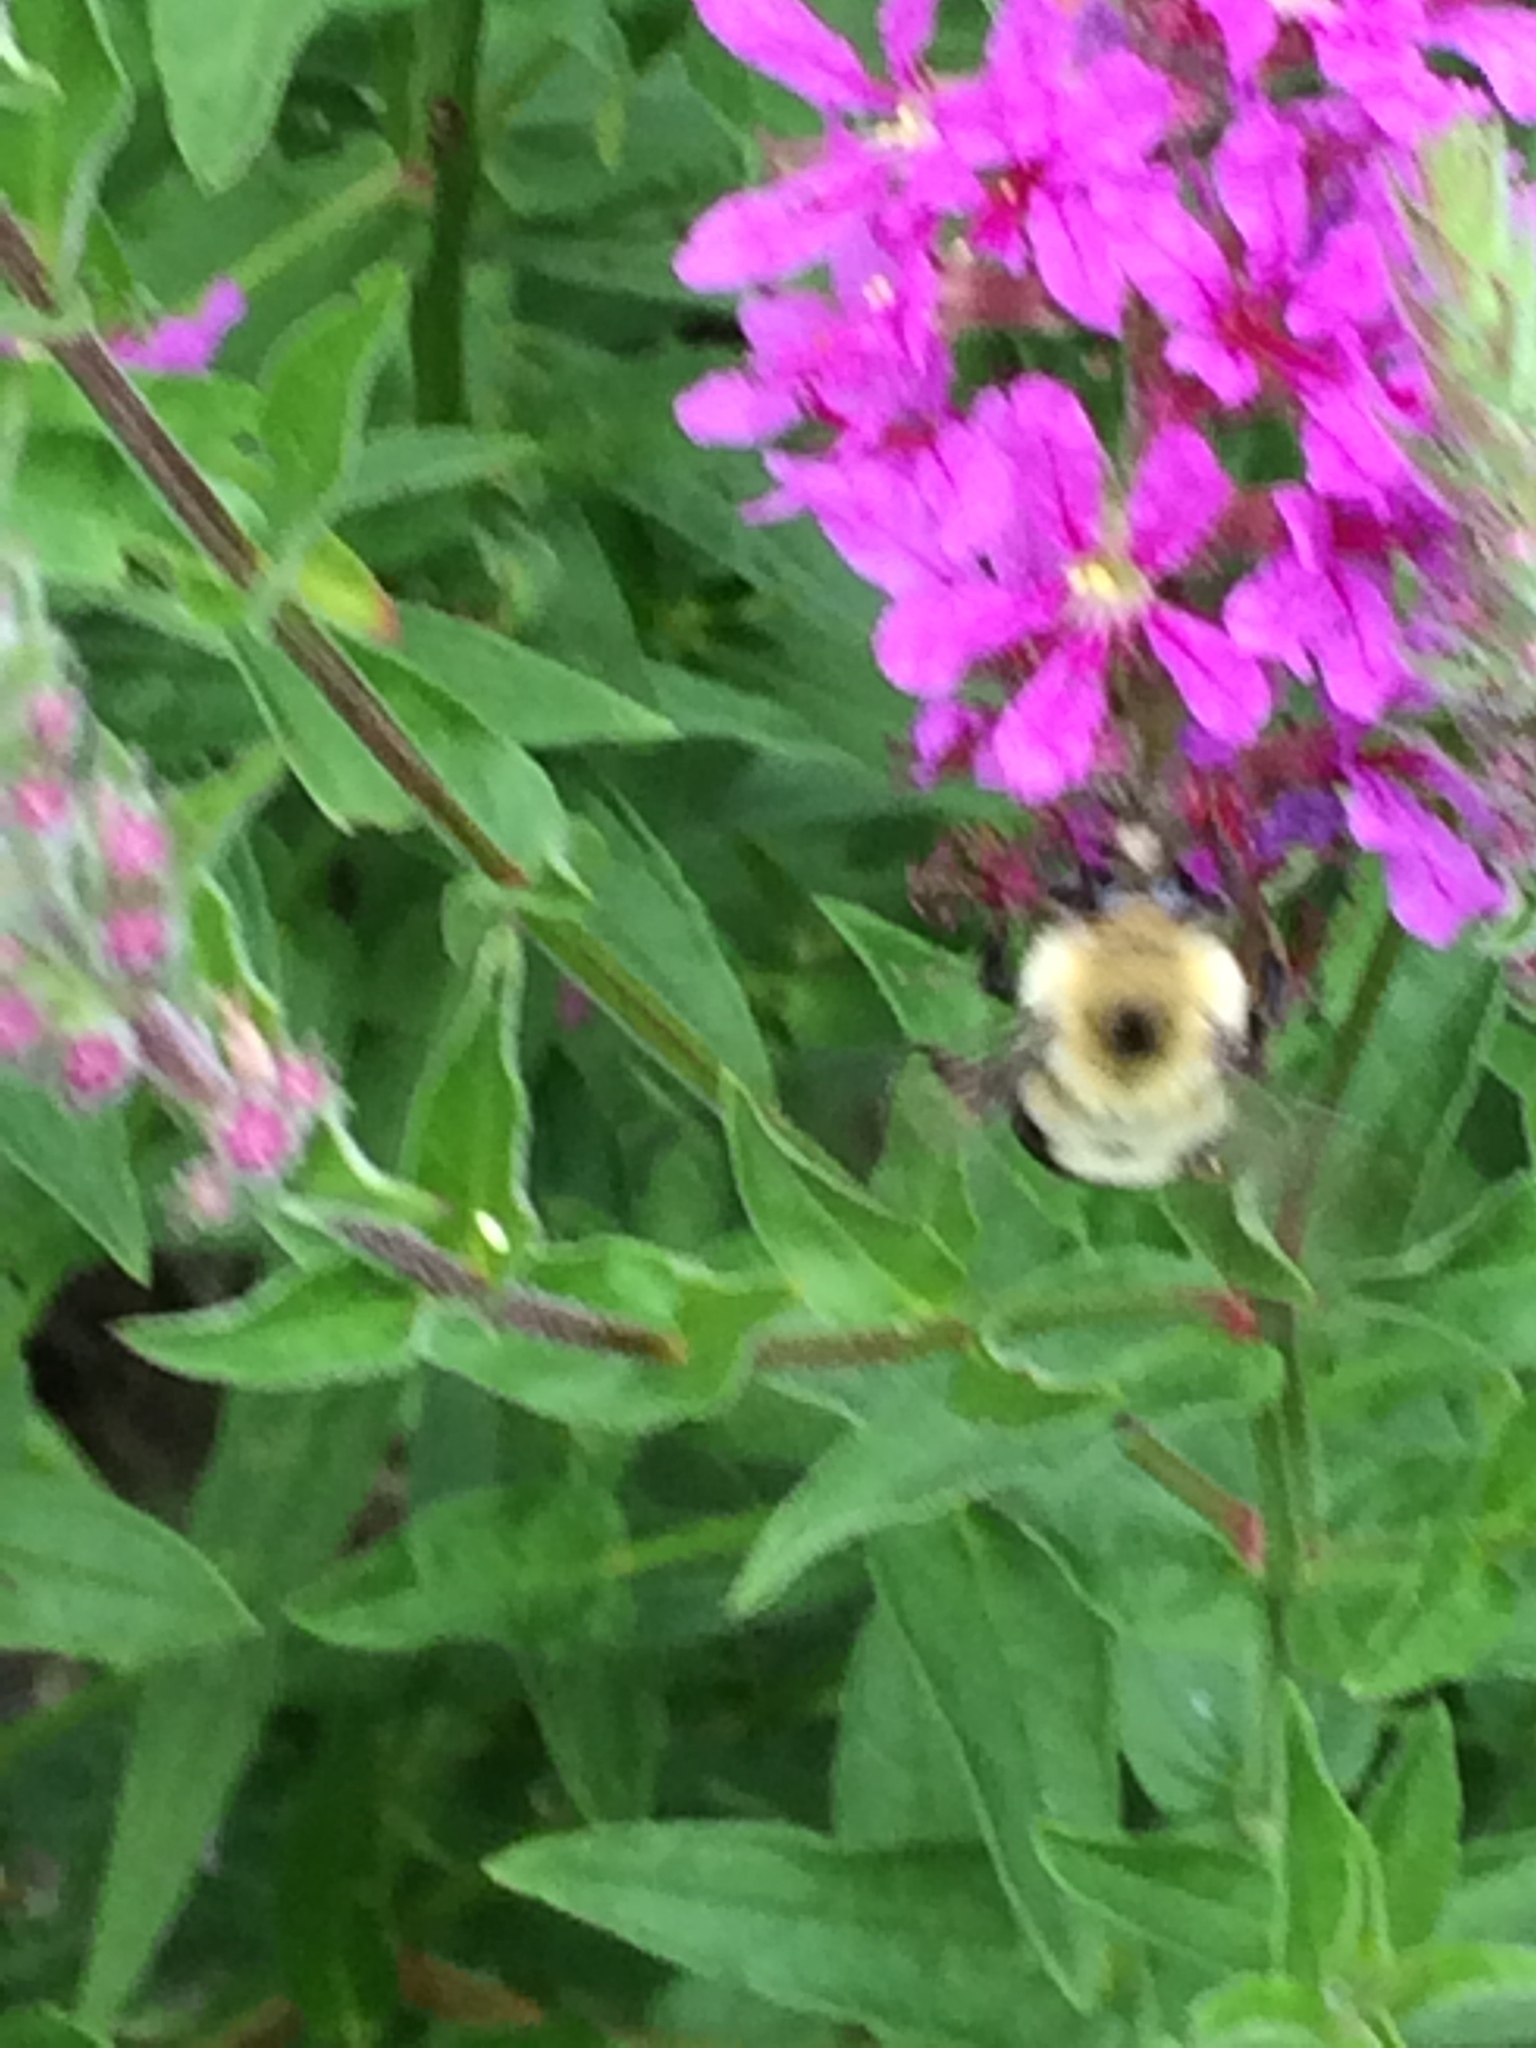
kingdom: Animalia
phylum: Arthropoda
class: Insecta
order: Hymenoptera
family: Apidae
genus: Bombus
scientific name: Bombus bimaculatus
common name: Two-spotted bumble bee
